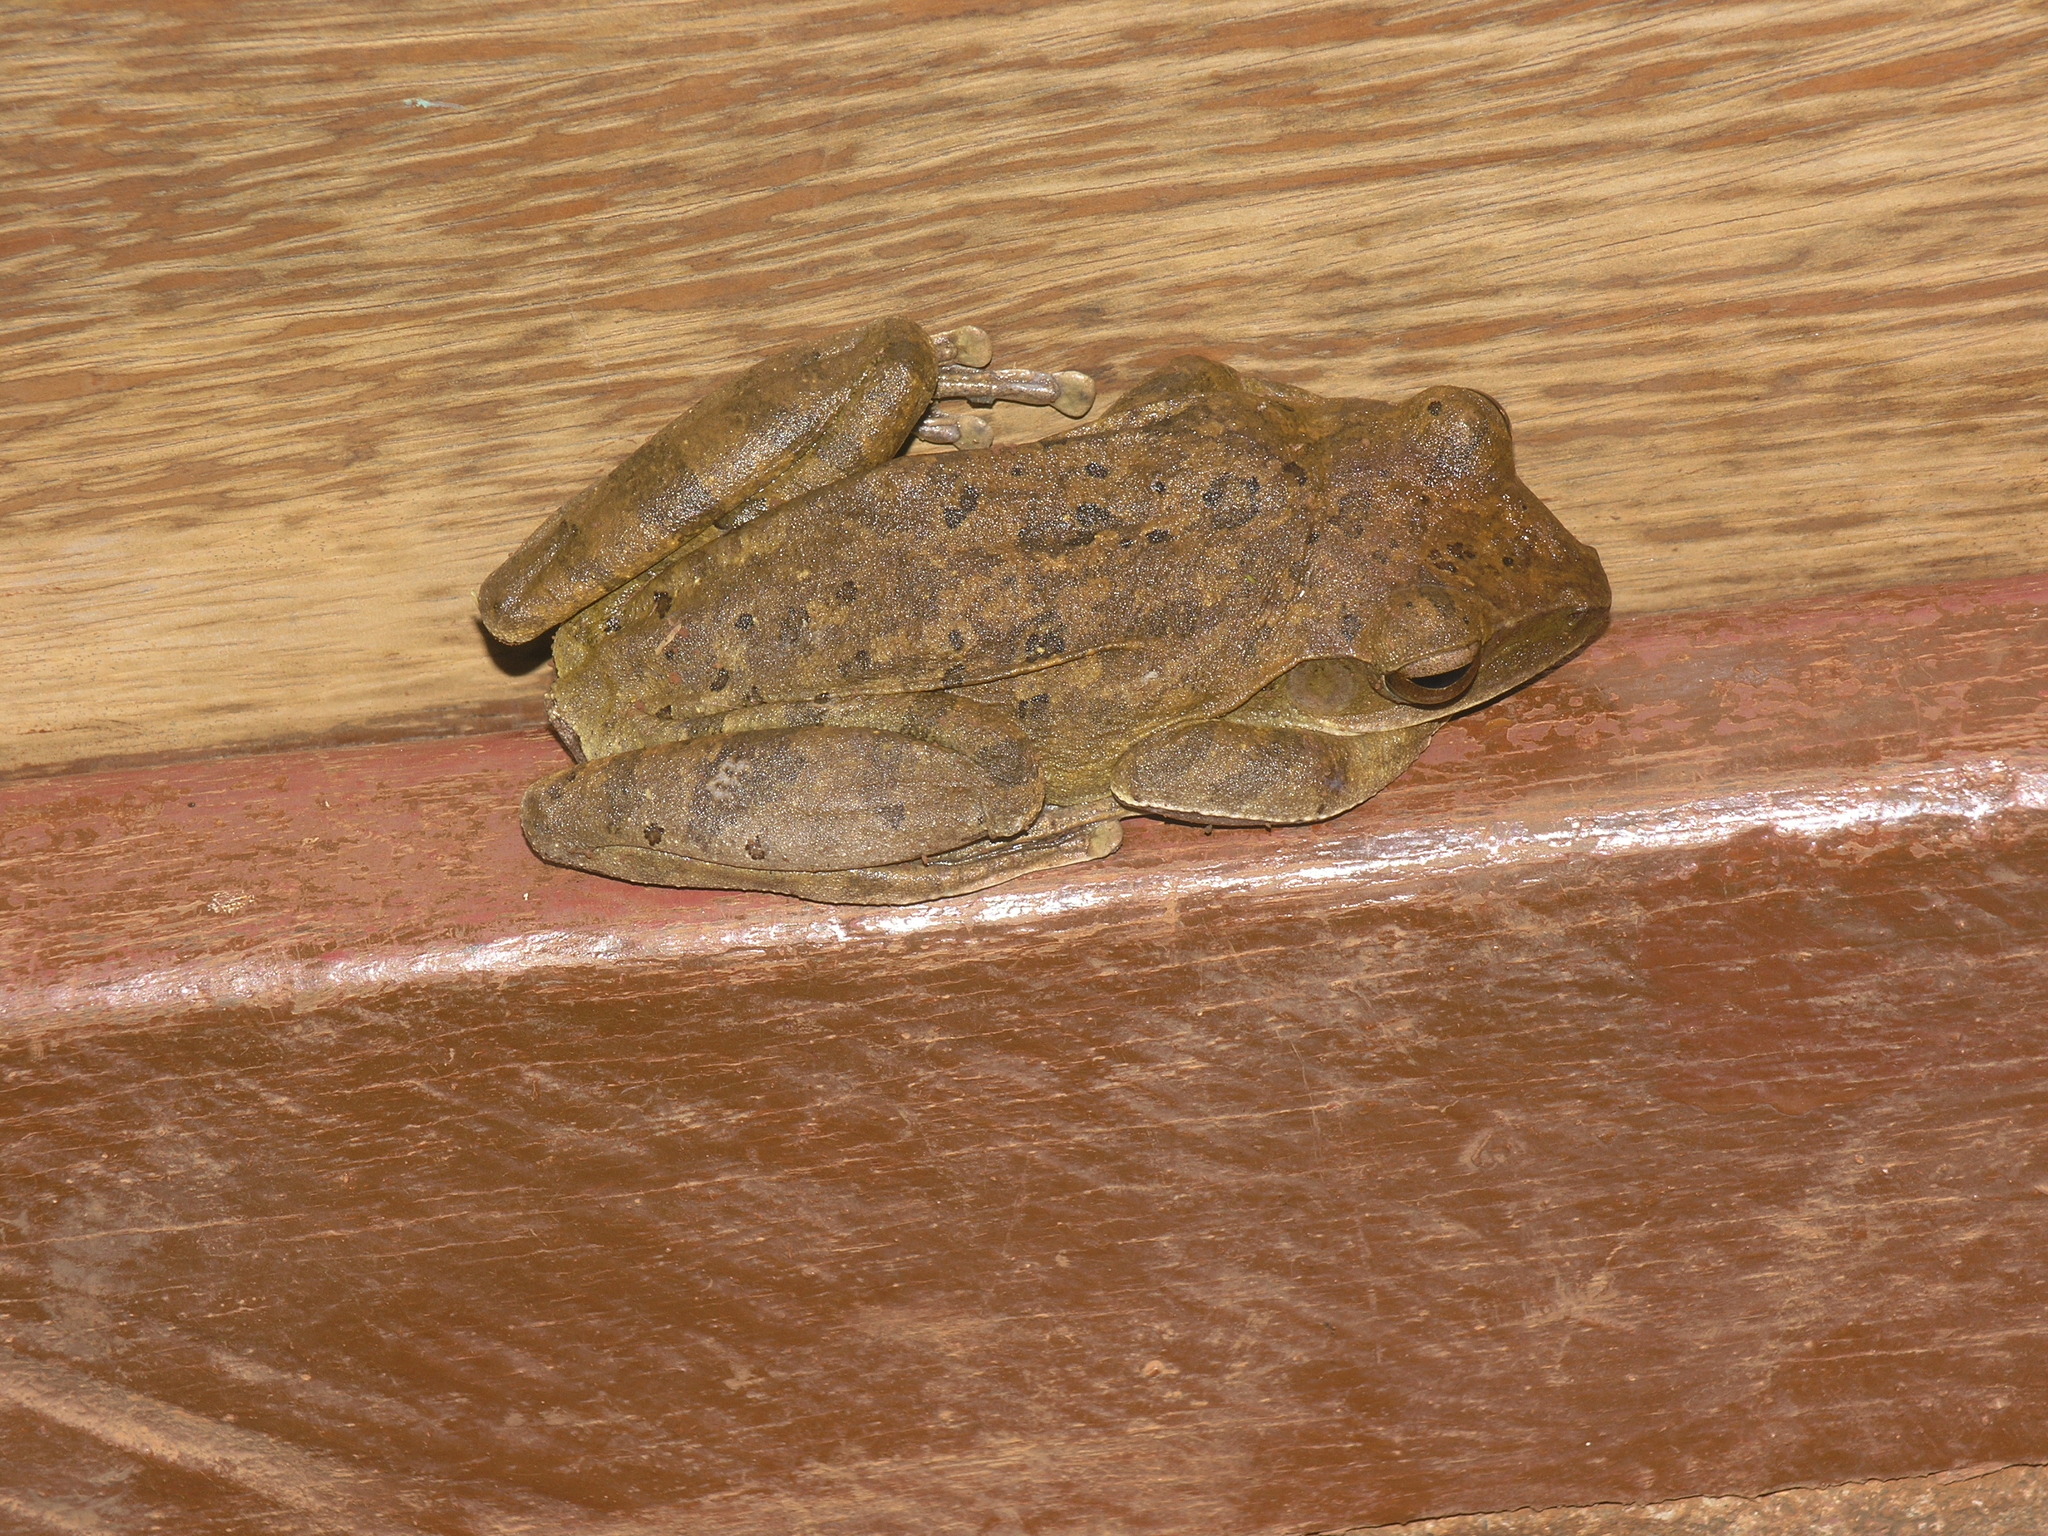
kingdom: Animalia
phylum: Chordata
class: Amphibia
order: Anura
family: Rhacophoridae
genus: Polypedates
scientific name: Polypedates megacephalus
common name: Hong kong whipping frog
